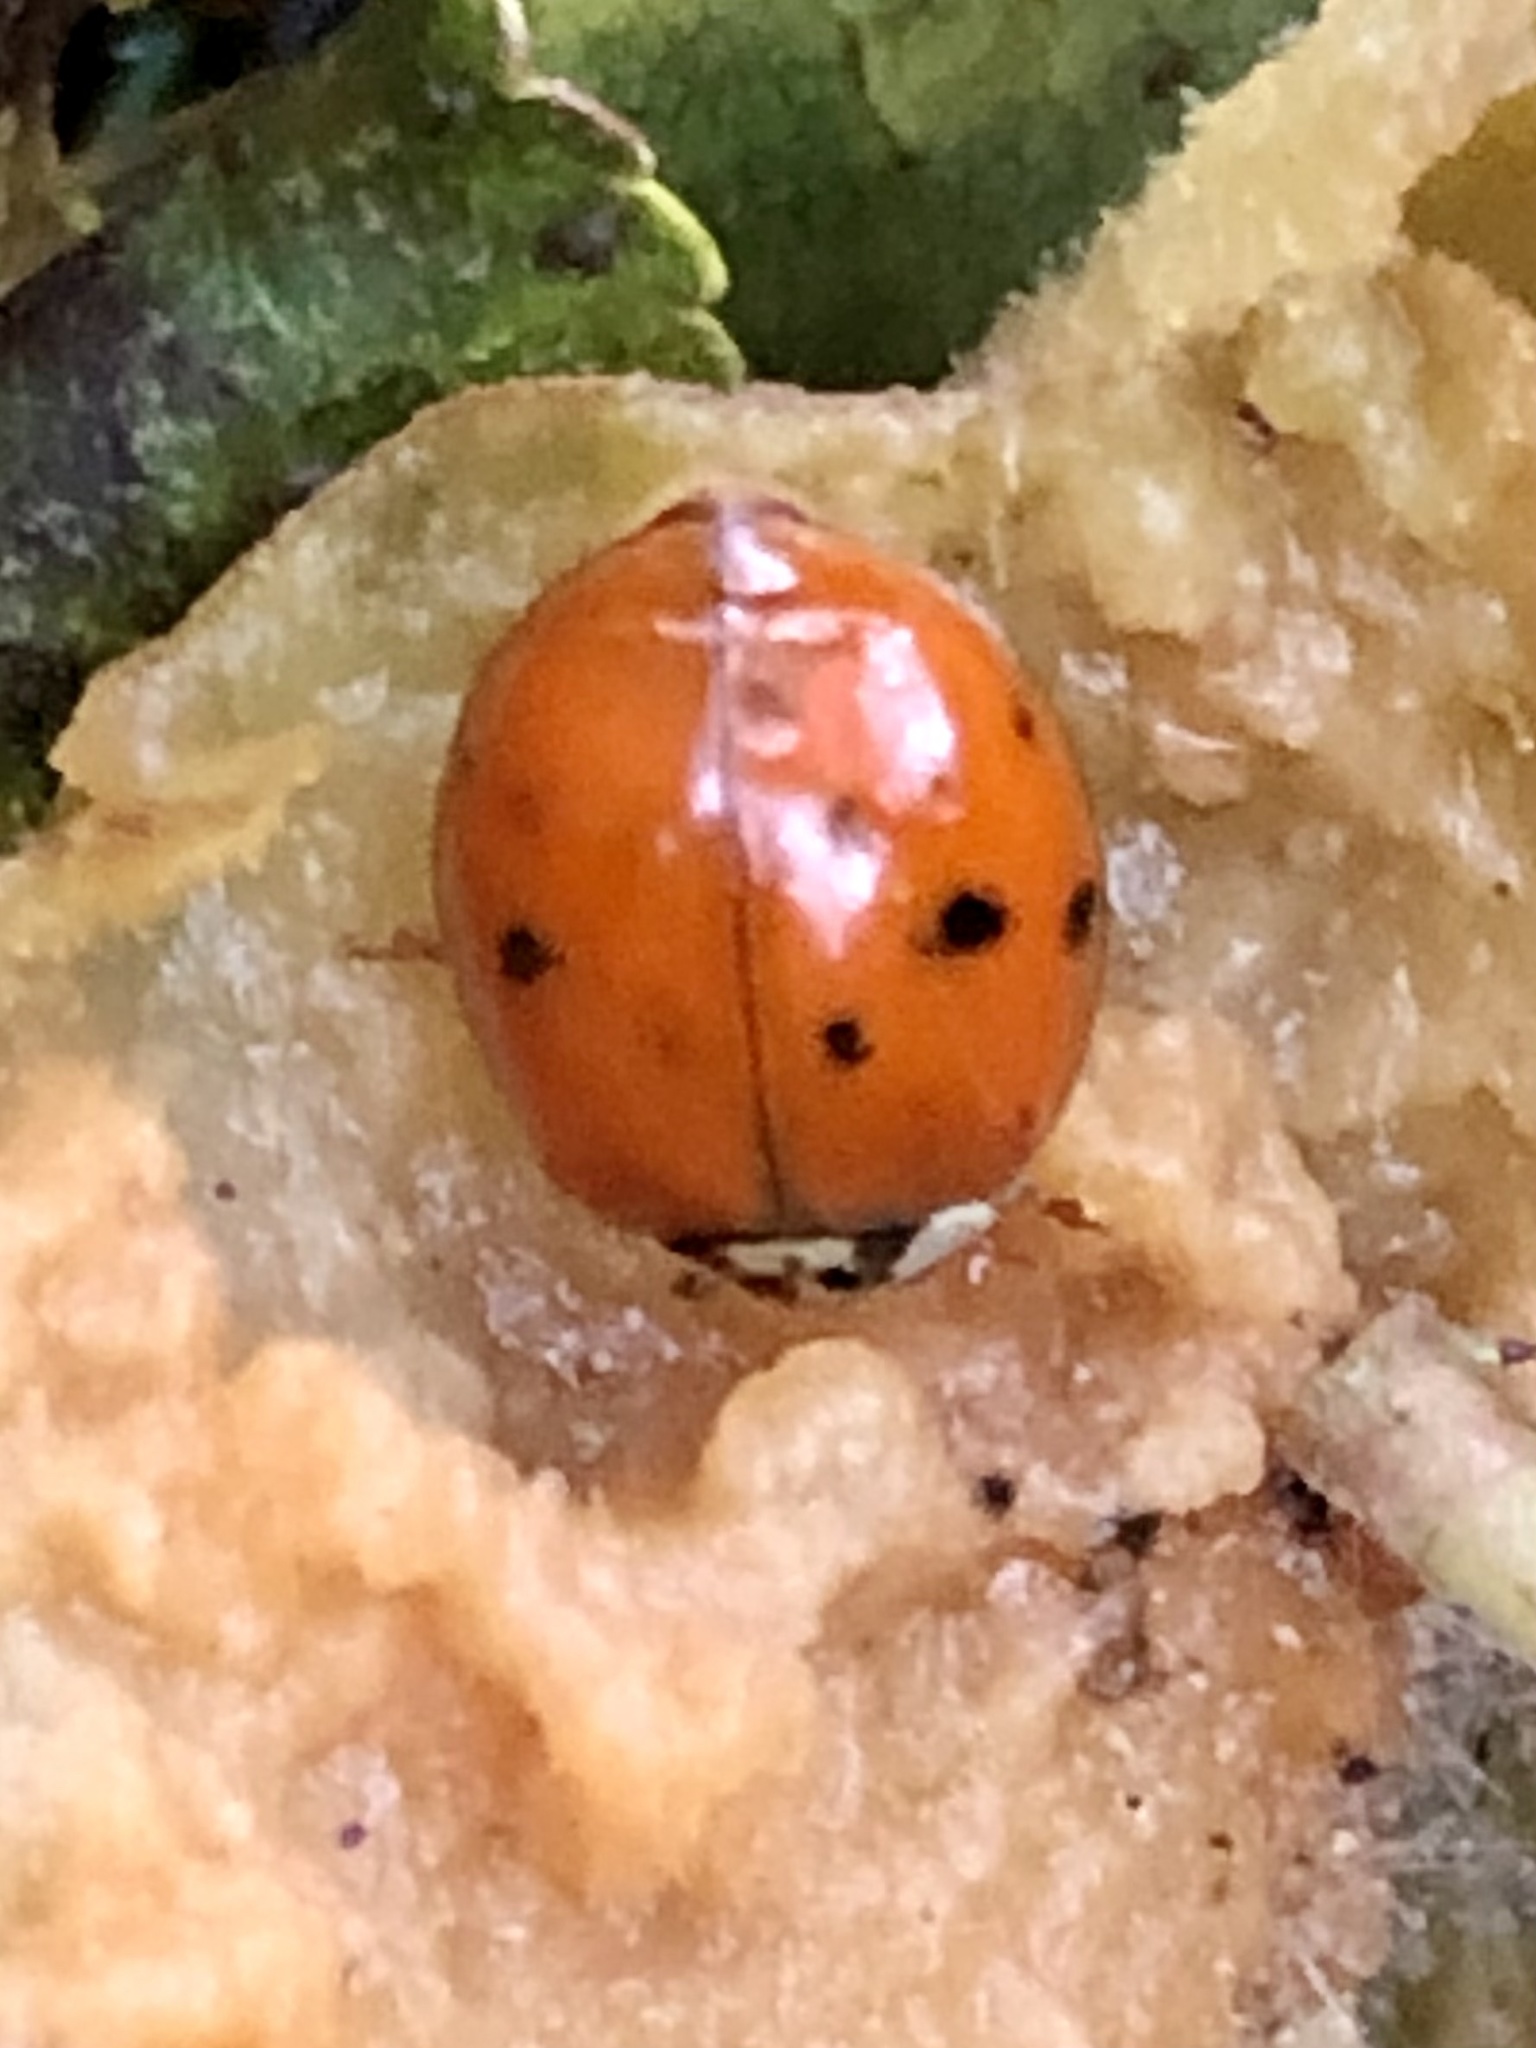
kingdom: Animalia
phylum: Arthropoda
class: Insecta
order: Coleoptera
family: Coccinellidae
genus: Harmonia
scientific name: Harmonia axyridis
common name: Harlequin ladybird
